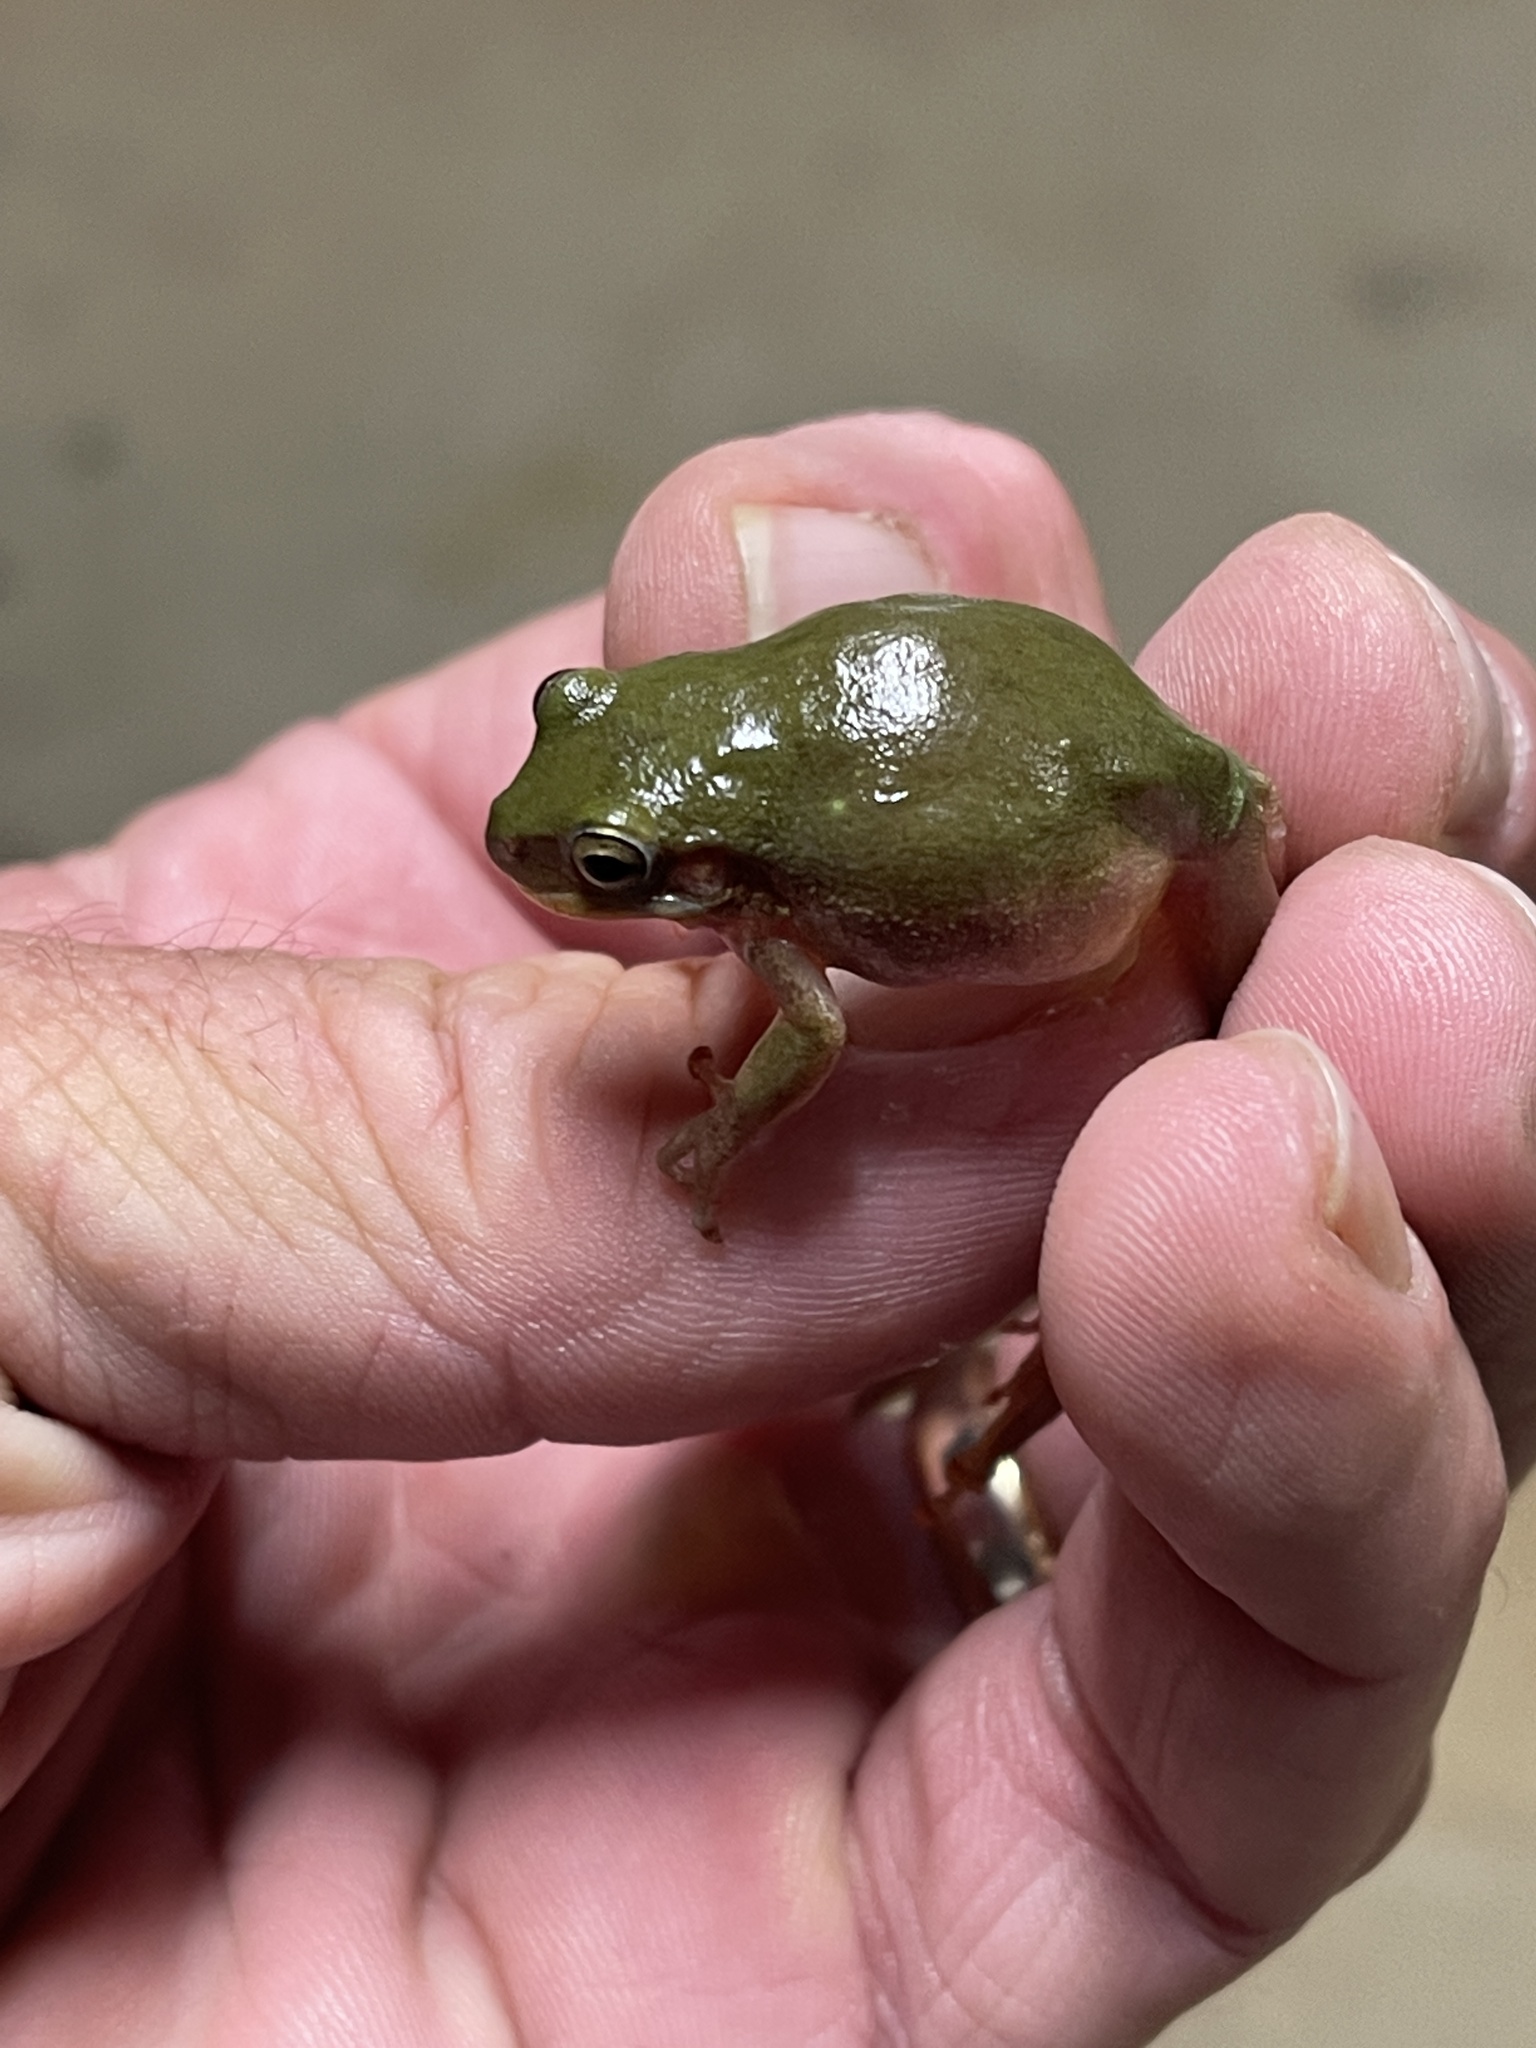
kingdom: Animalia
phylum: Chordata
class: Amphibia
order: Anura
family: Hylidae
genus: Dryophytes
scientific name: Dryophytes squirellus
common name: Squirrel treefrog
